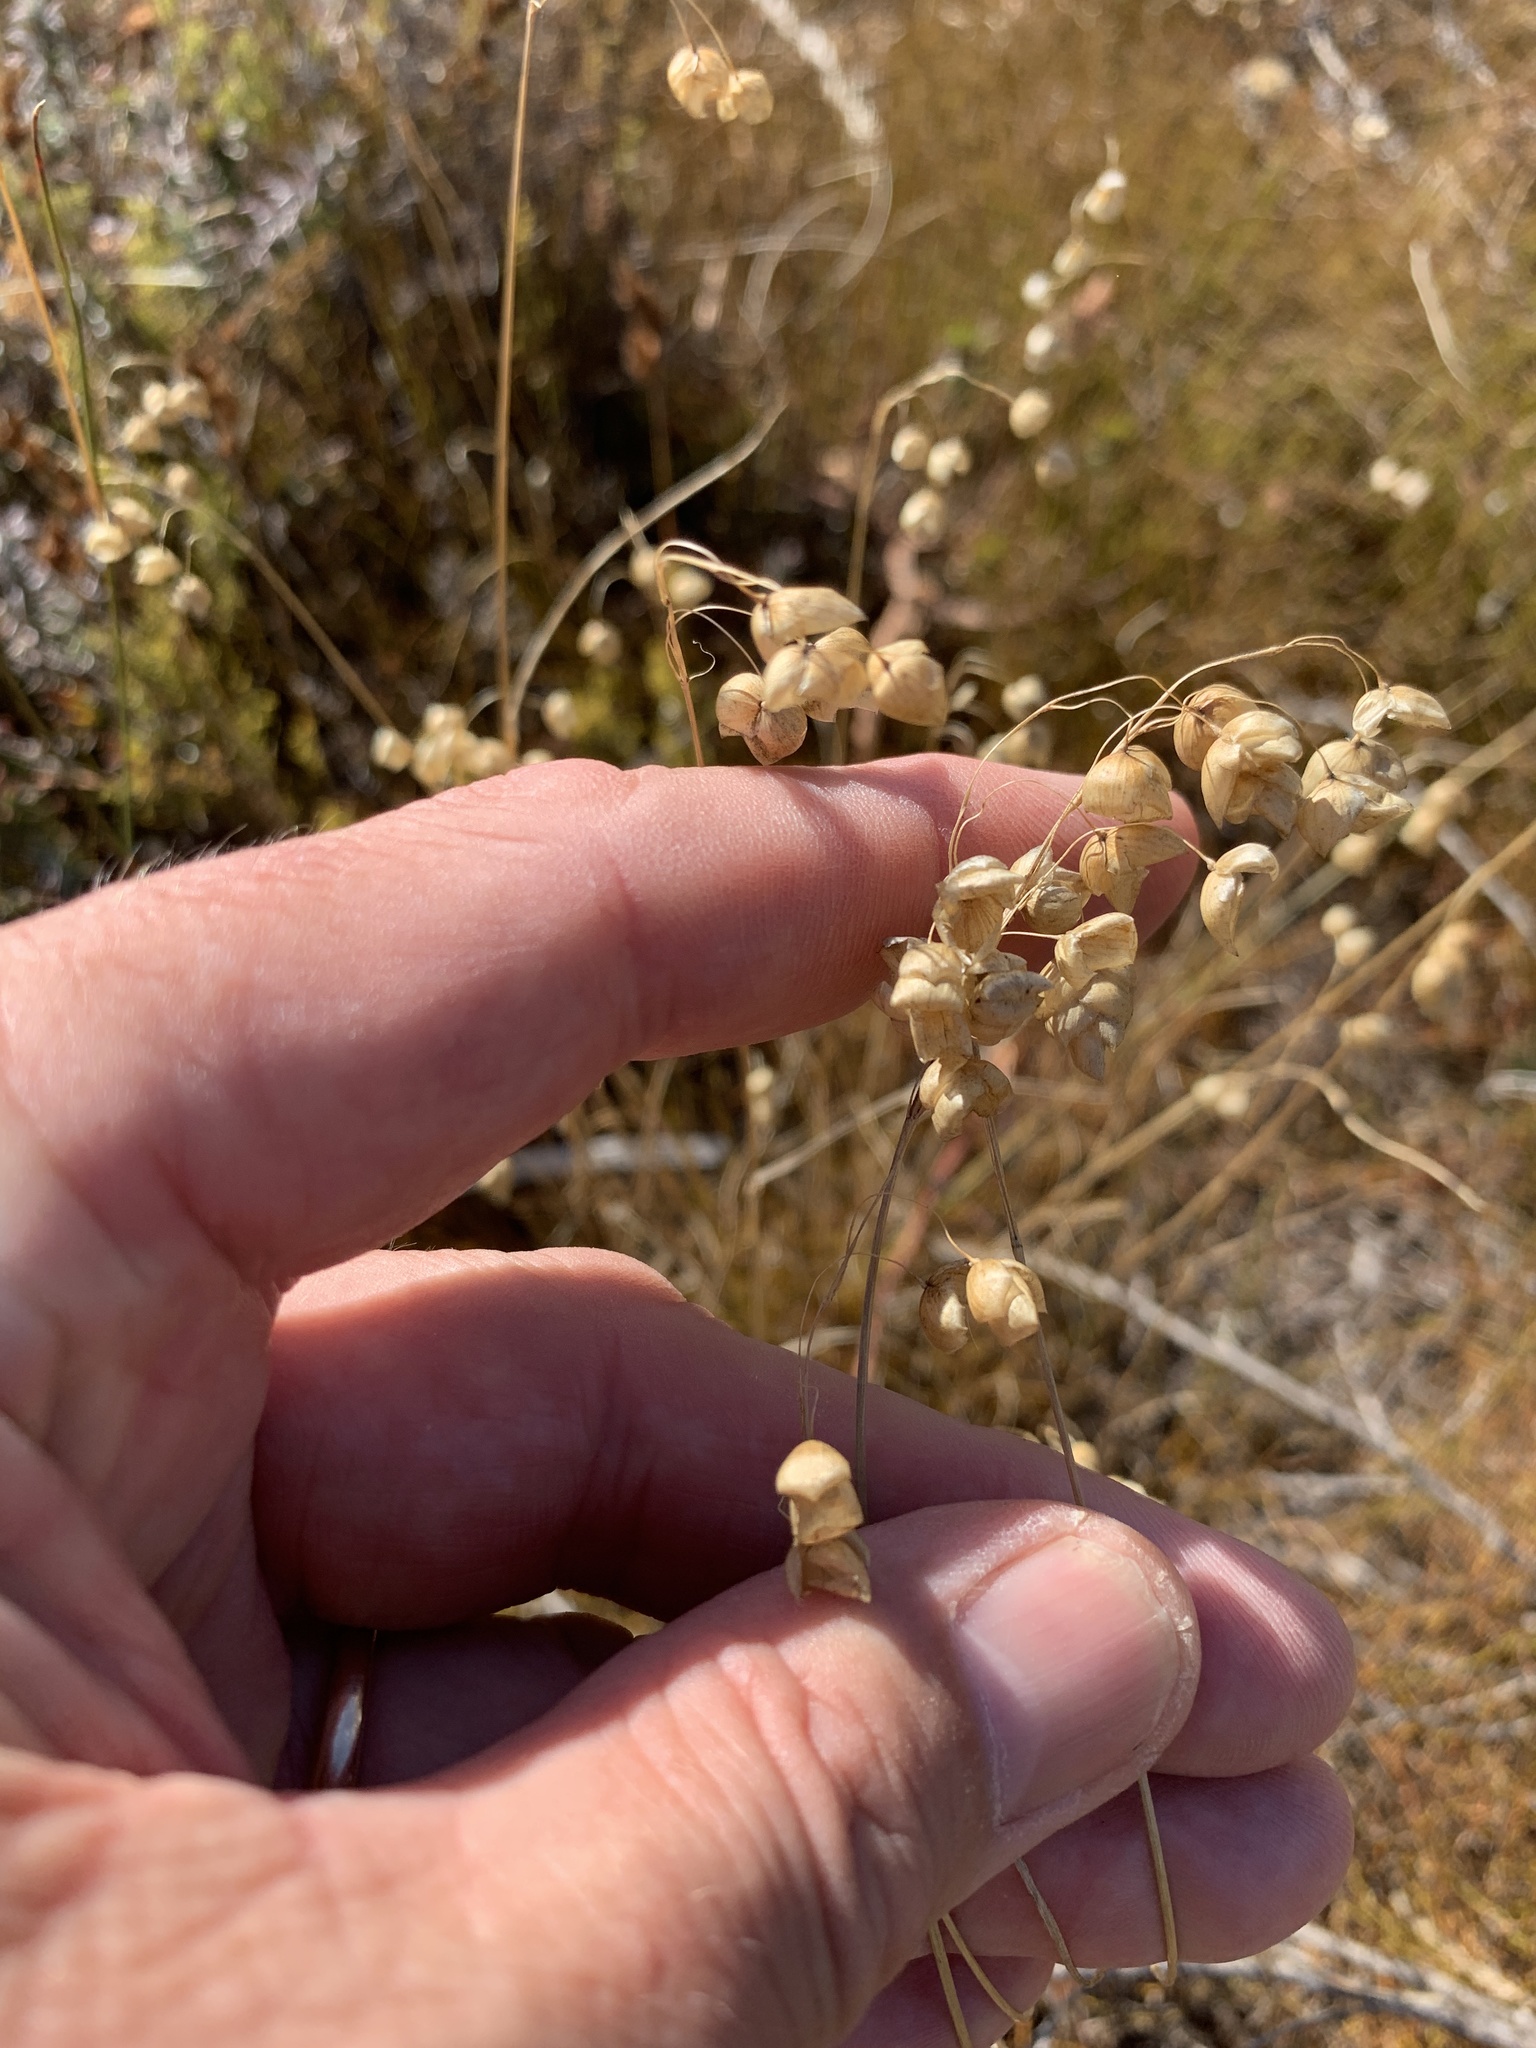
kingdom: Plantae
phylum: Tracheophyta
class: Liliopsida
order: Poales
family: Poaceae
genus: Briza
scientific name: Briza maxima
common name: Big quakinggrass
